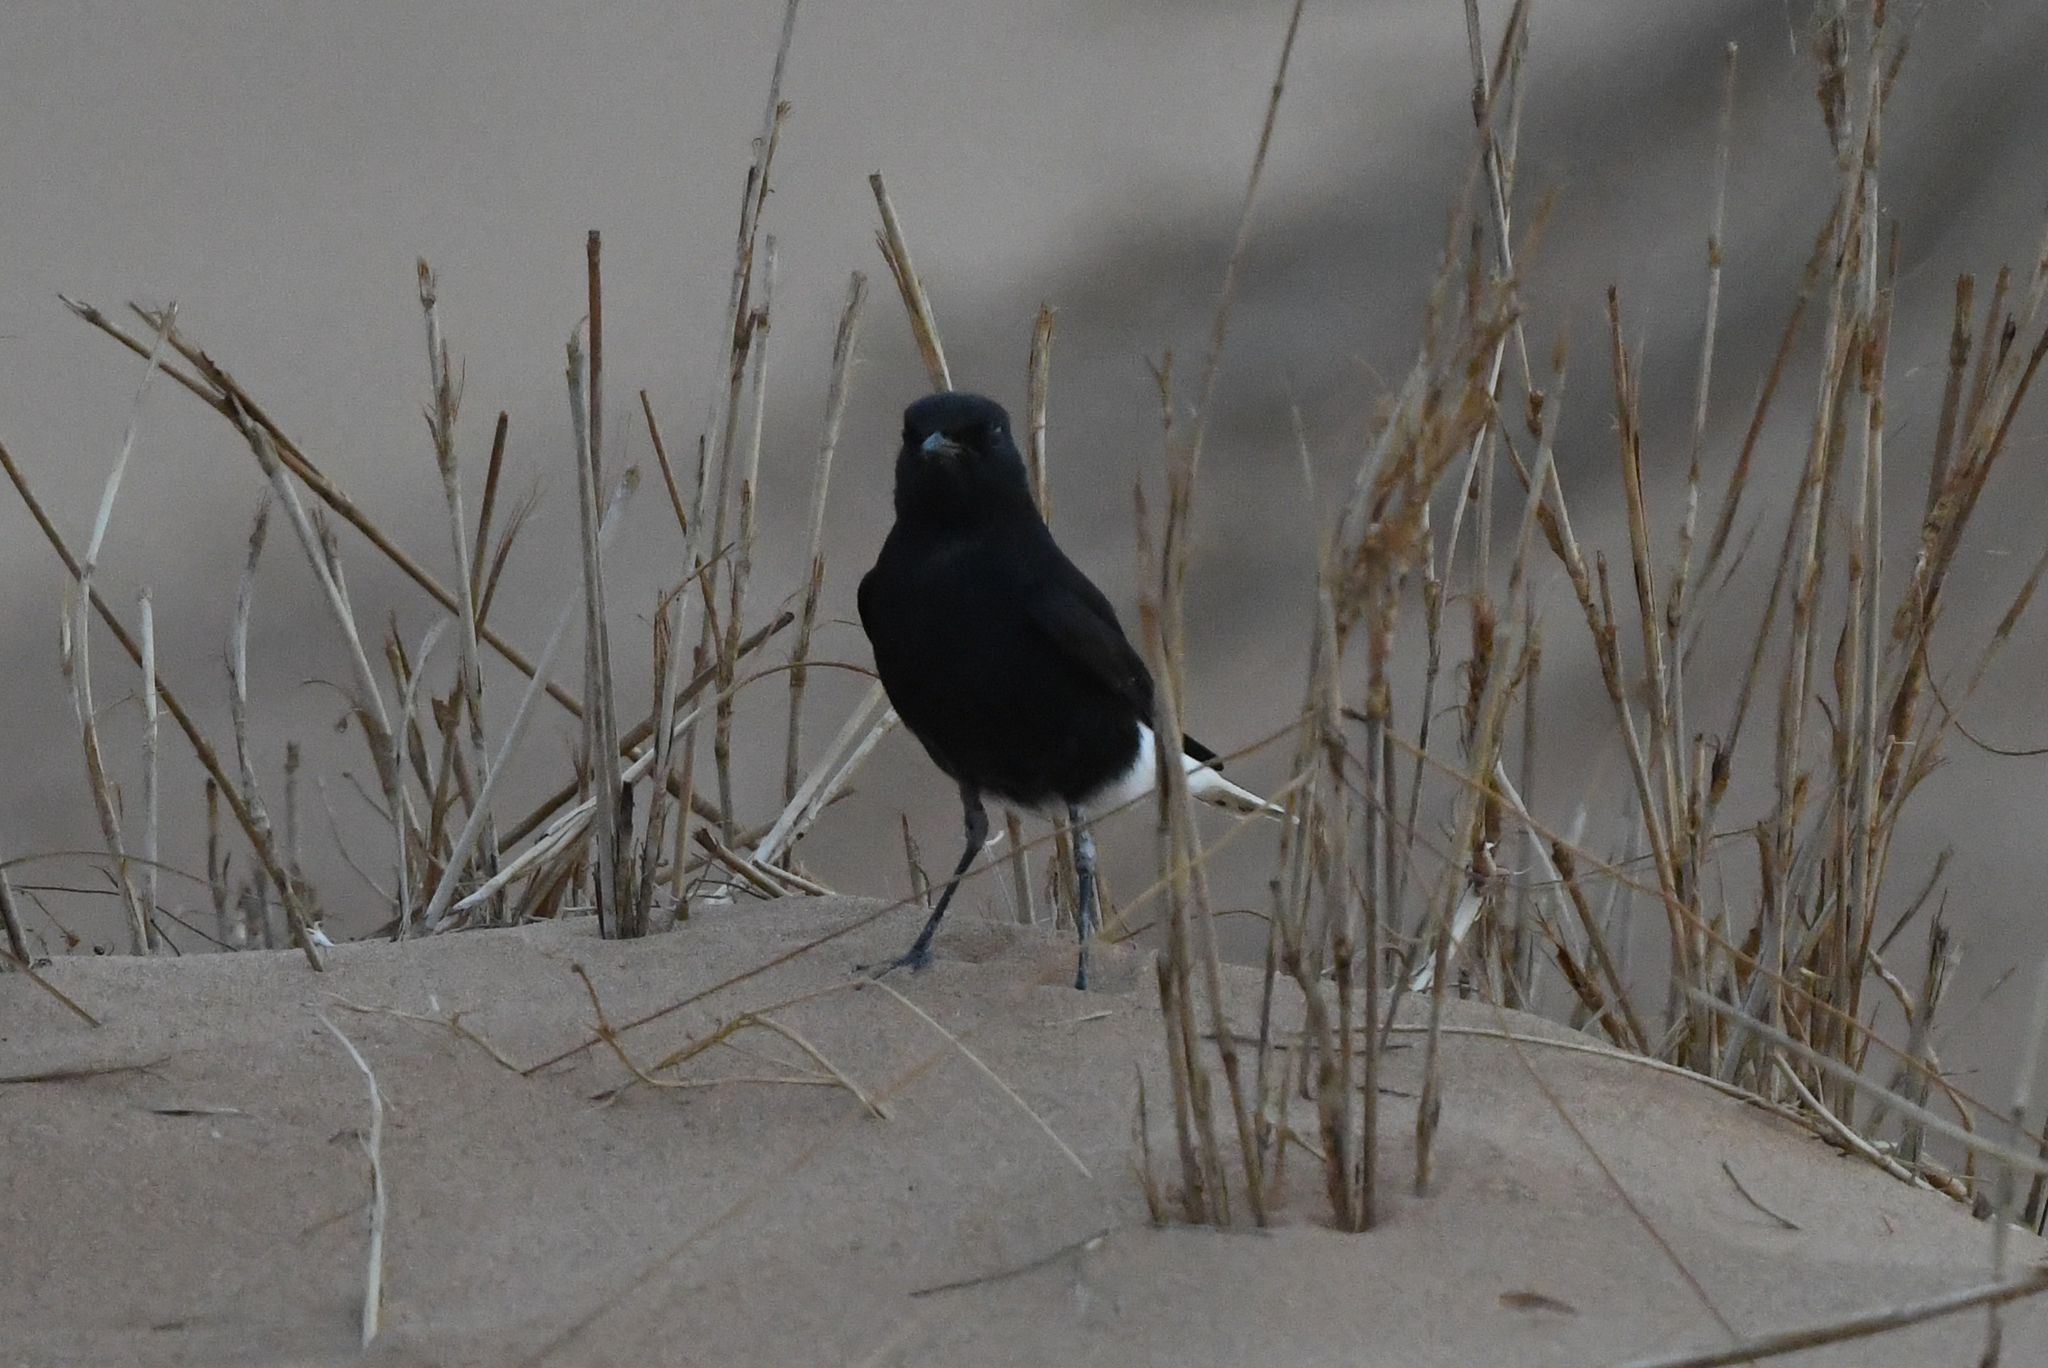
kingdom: Animalia
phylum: Chordata
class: Aves
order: Passeriformes
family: Muscicapidae
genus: Oenanthe
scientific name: Oenanthe leucopyga
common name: White-crowned wheatear
